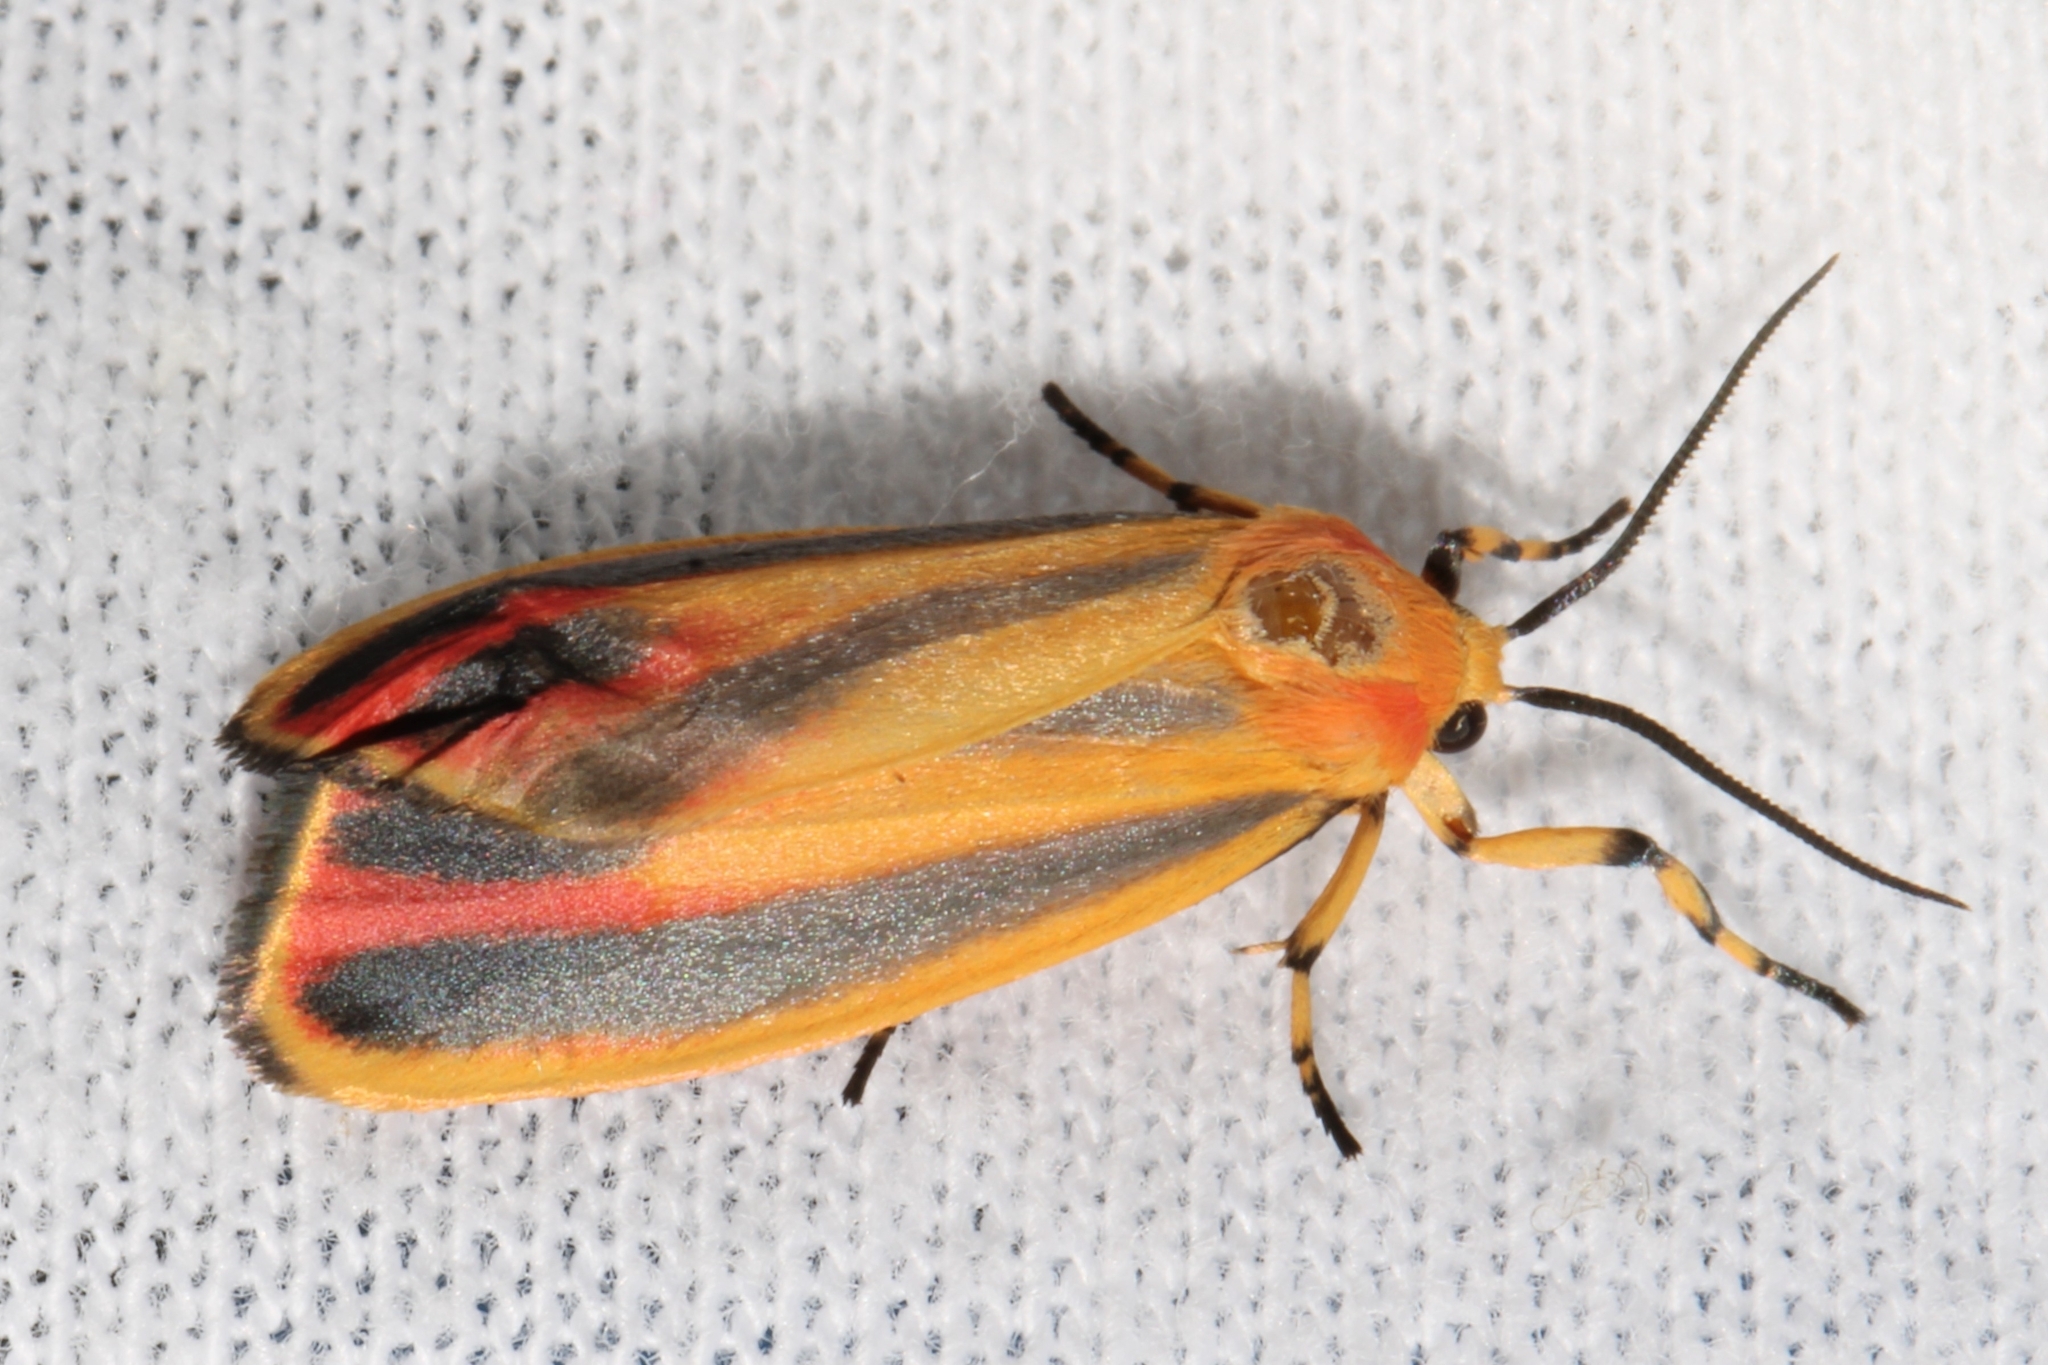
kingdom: Animalia
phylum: Arthropoda
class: Insecta
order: Lepidoptera
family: Erebidae
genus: Hypoprepia
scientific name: Hypoprepia fucosa
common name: Painted lichen moth
